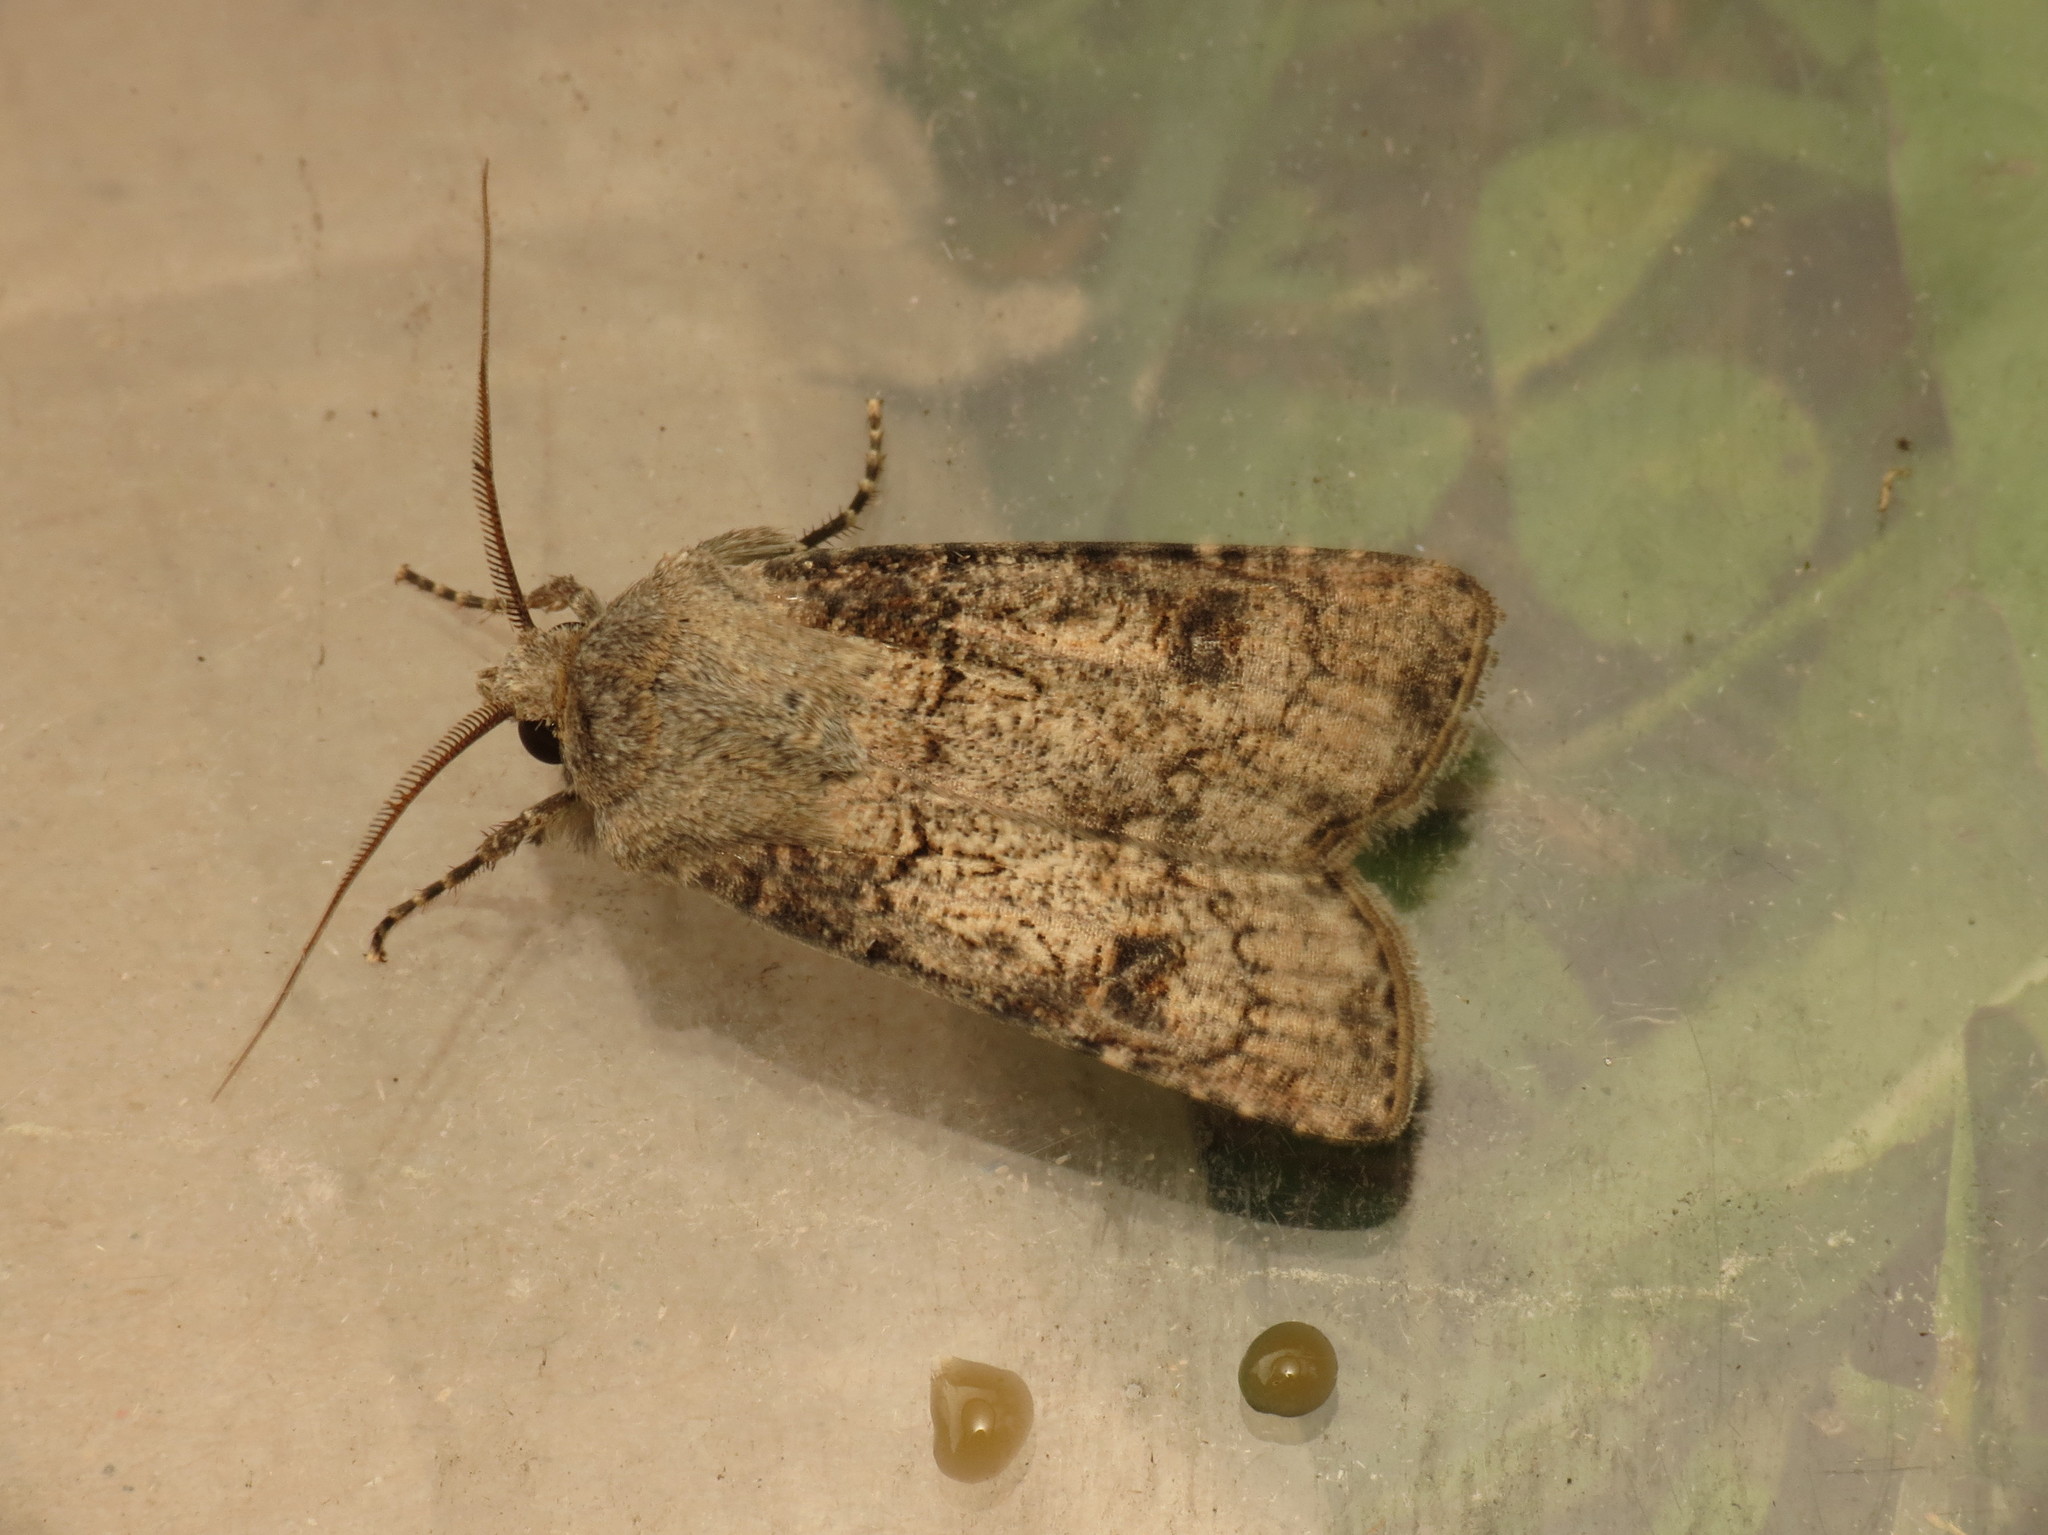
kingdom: Animalia
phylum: Arthropoda
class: Insecta
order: Lepidoptera
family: Noctuidae
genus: Agrotis
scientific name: Agrotis segetum
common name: Turnip moth
